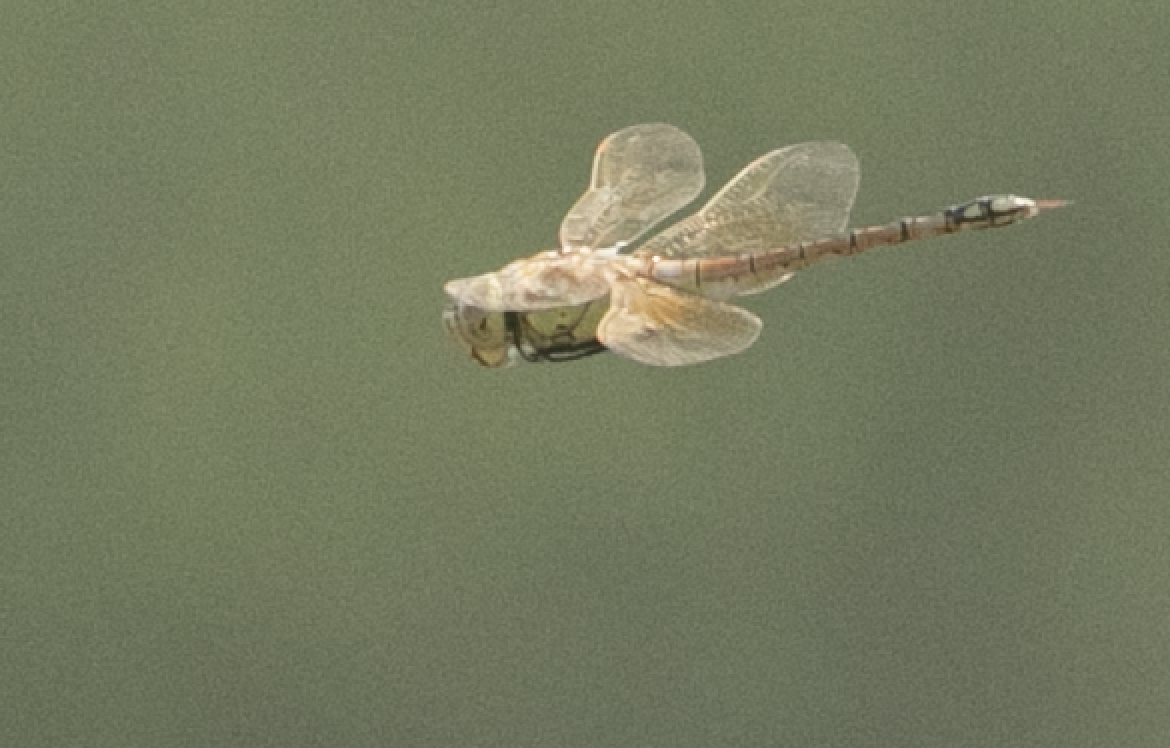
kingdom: Animalia
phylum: Arthropoda
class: Insecta
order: Odonata
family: Aeshnidae
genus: Anax
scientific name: Anax ephippiger
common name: Vagrant emperor
